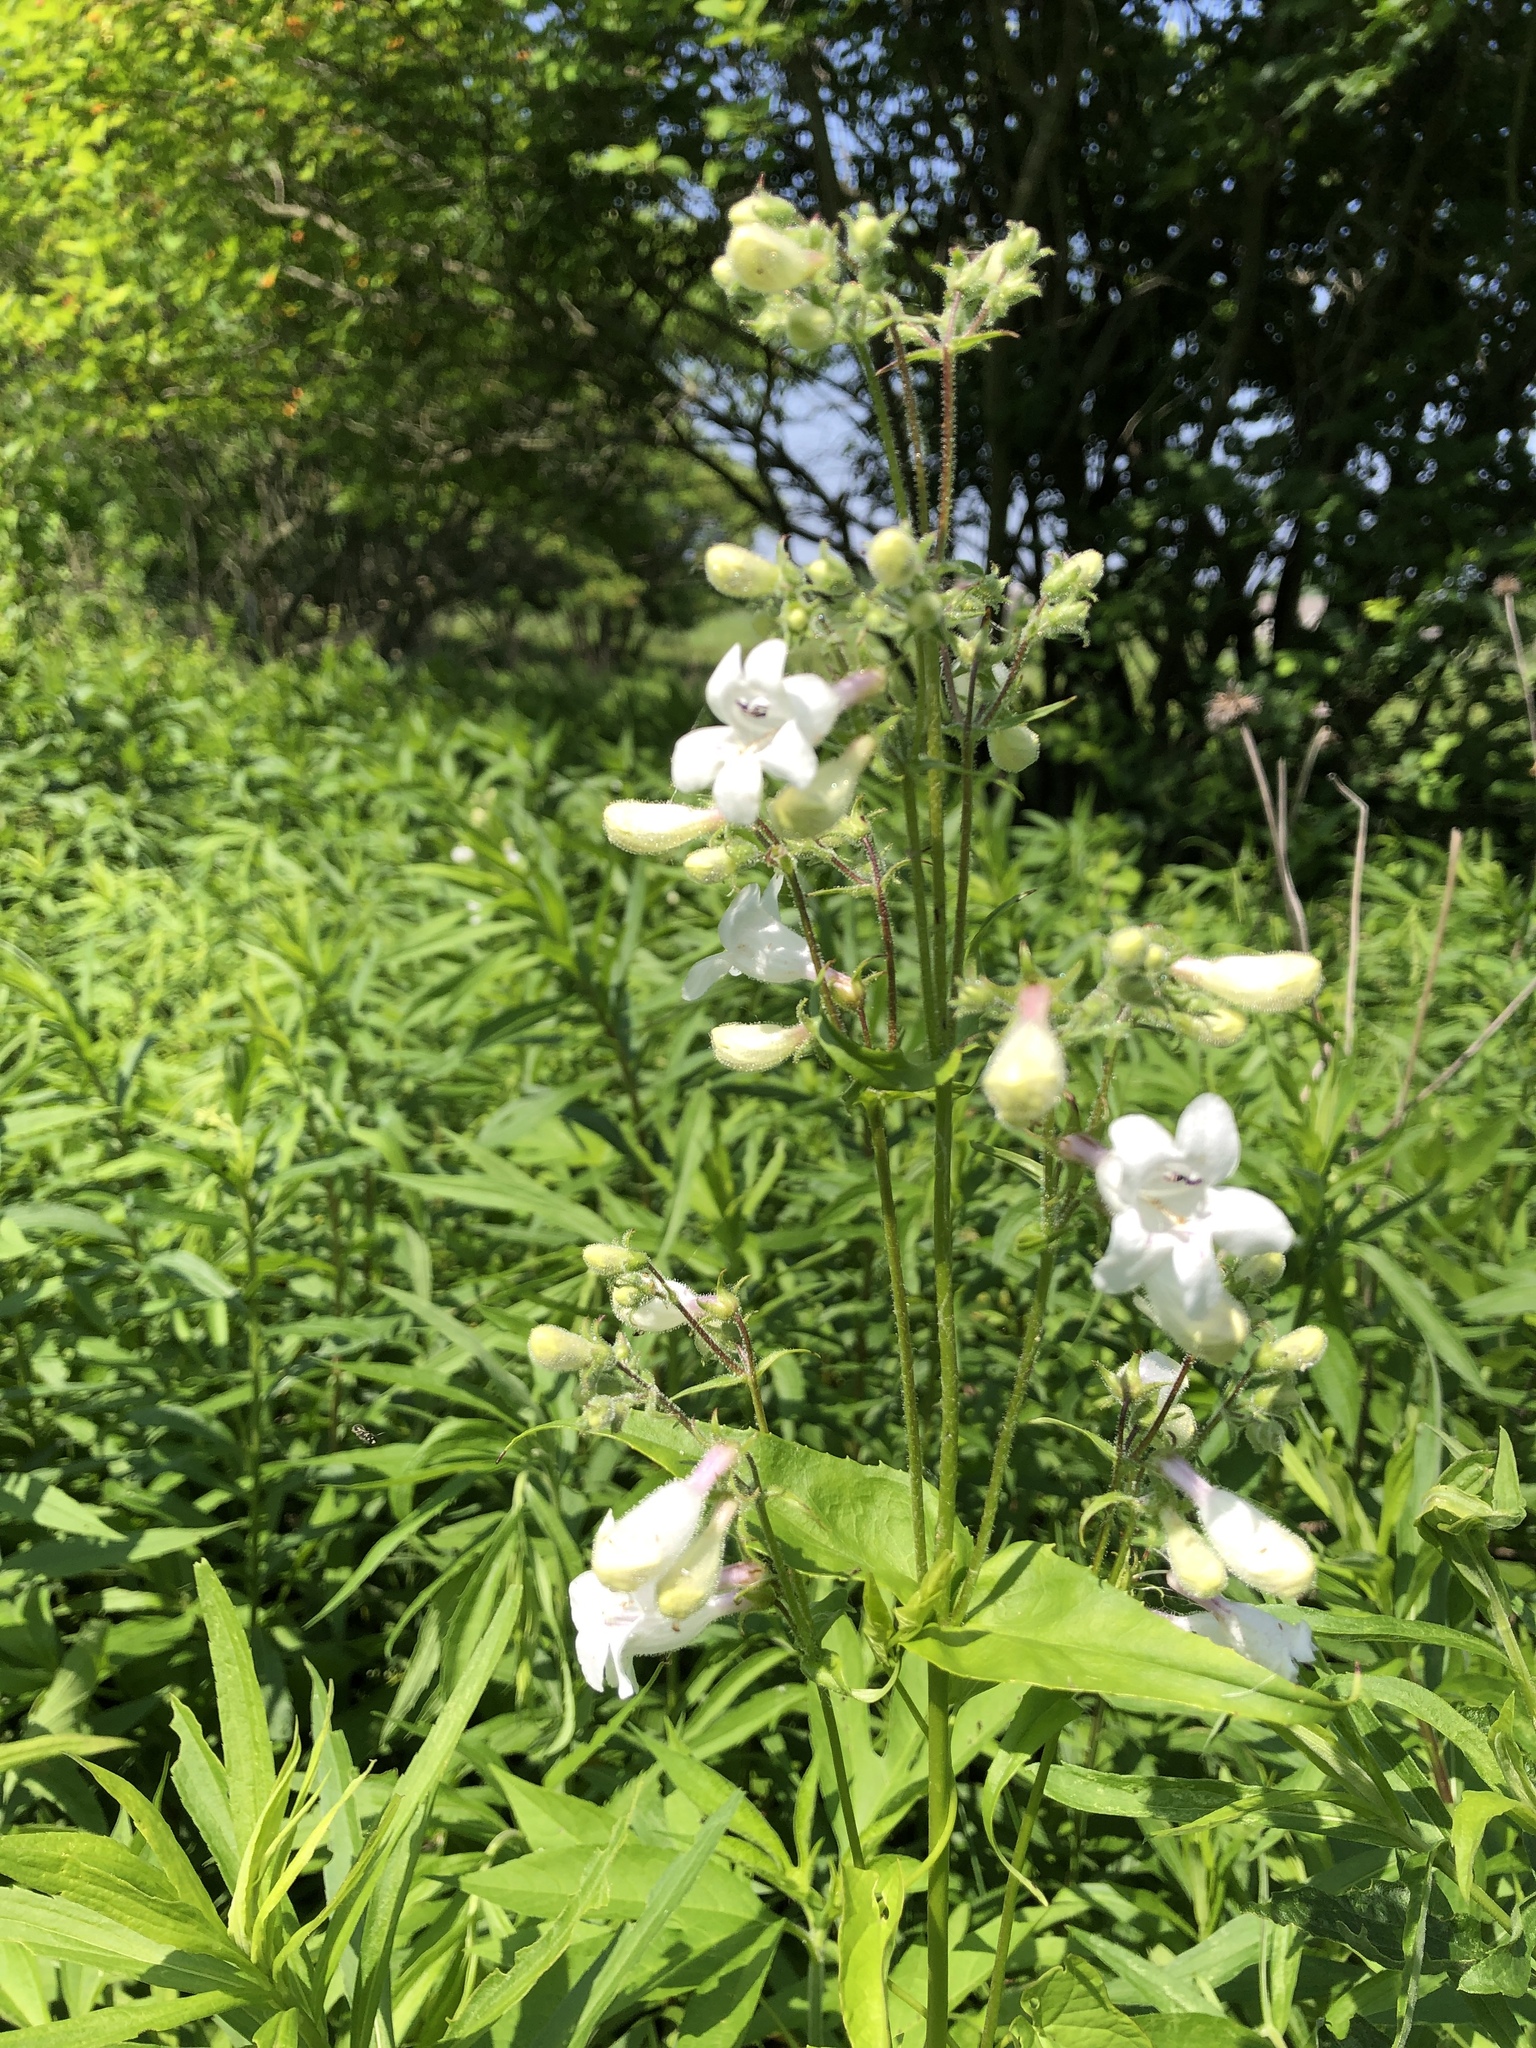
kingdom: Plantae
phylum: Tracheophyta
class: Magnoliopsida
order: Lamiales
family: Plantaginaceae
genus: Penstemon
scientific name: Penstemon digitalis
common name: Foxglove beardtongue
